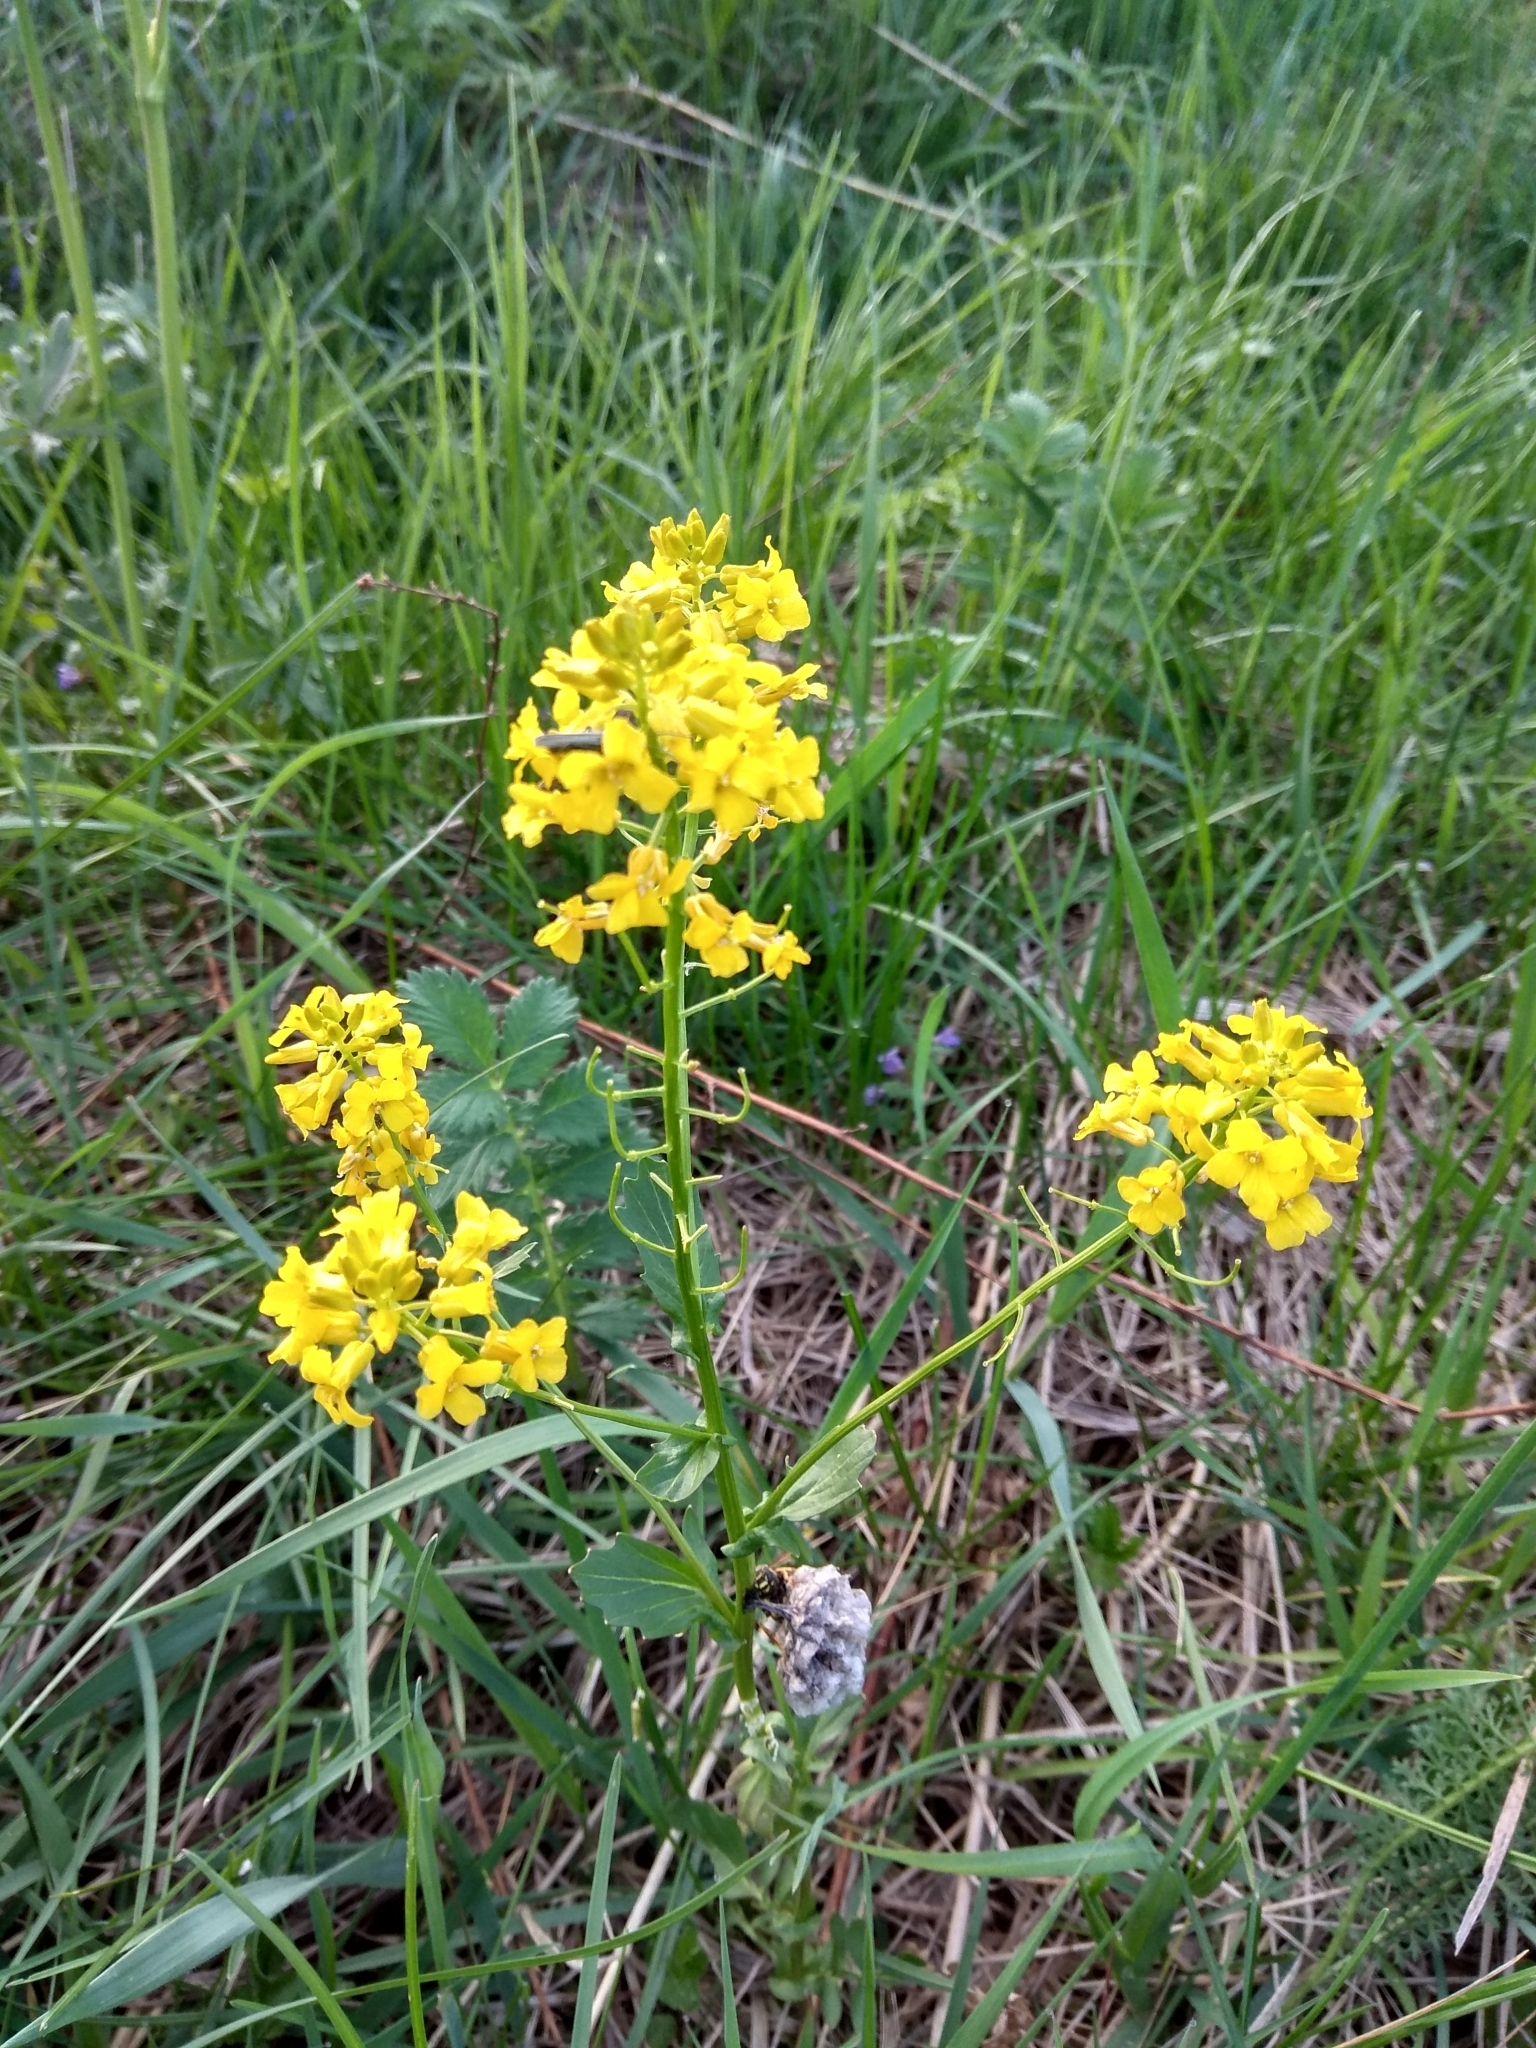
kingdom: Plantae
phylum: Tracheophyta
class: Magnoliopsida
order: Brassicales
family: Brassicaceae
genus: Barbarea
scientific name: Barbarea vulgaris
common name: Cressy-greens
